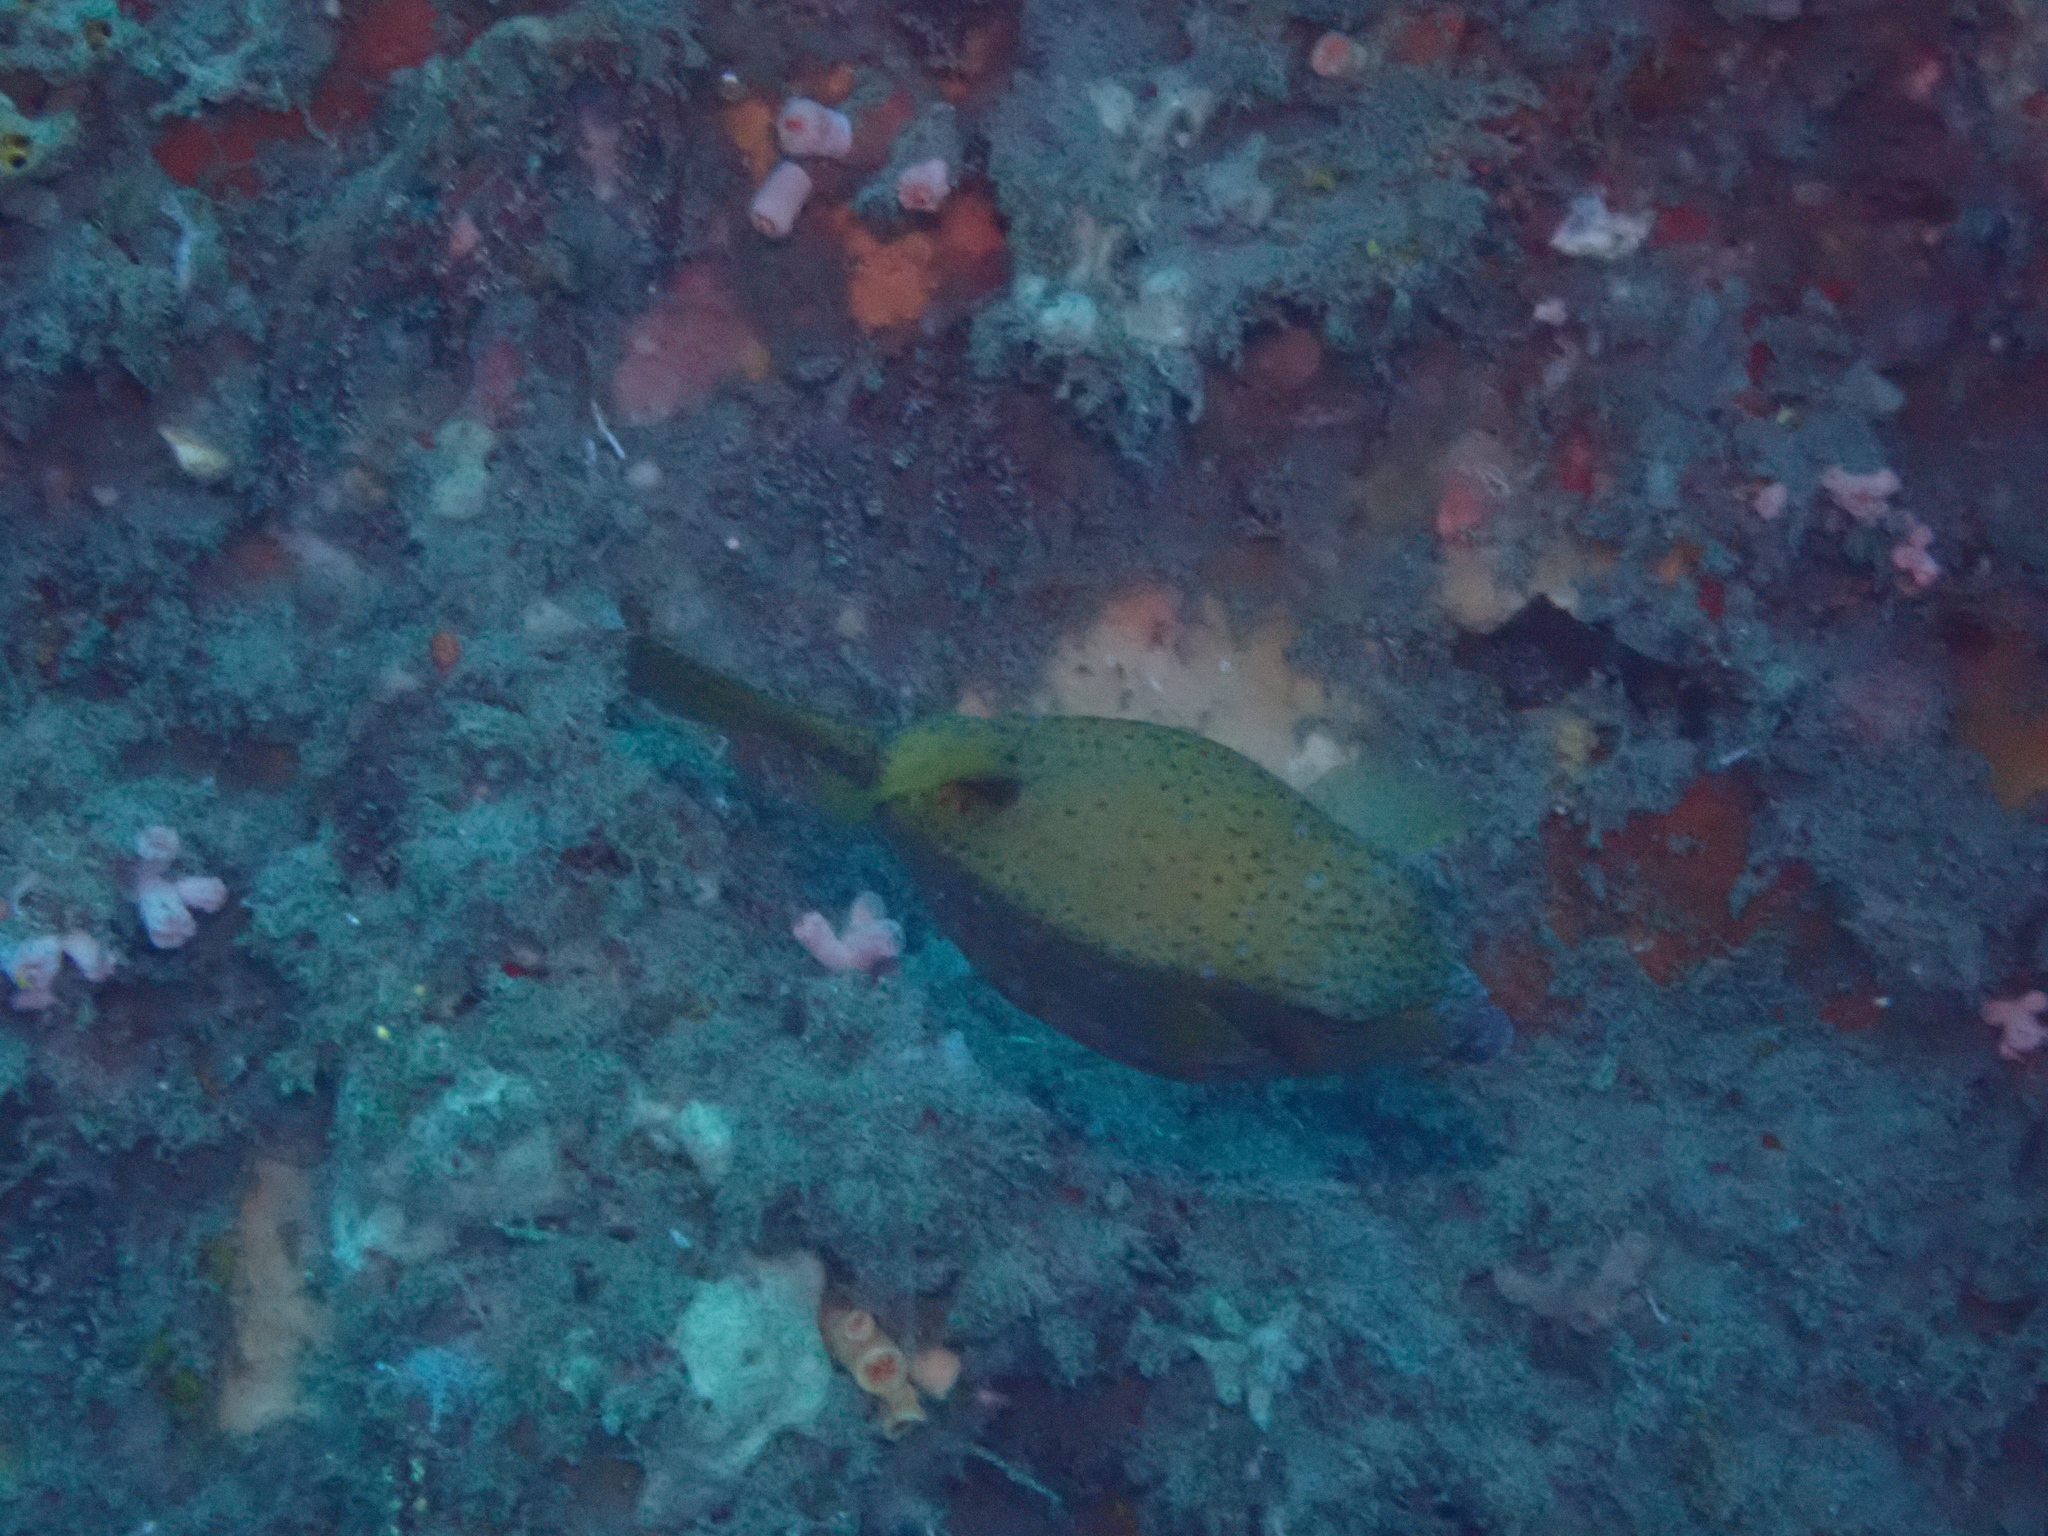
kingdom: Animalia
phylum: Chordata
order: Tetraodontiformes
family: Ostraciidae
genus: Ostracion
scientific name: Ostracion cubicus
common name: Cube trunkfish
